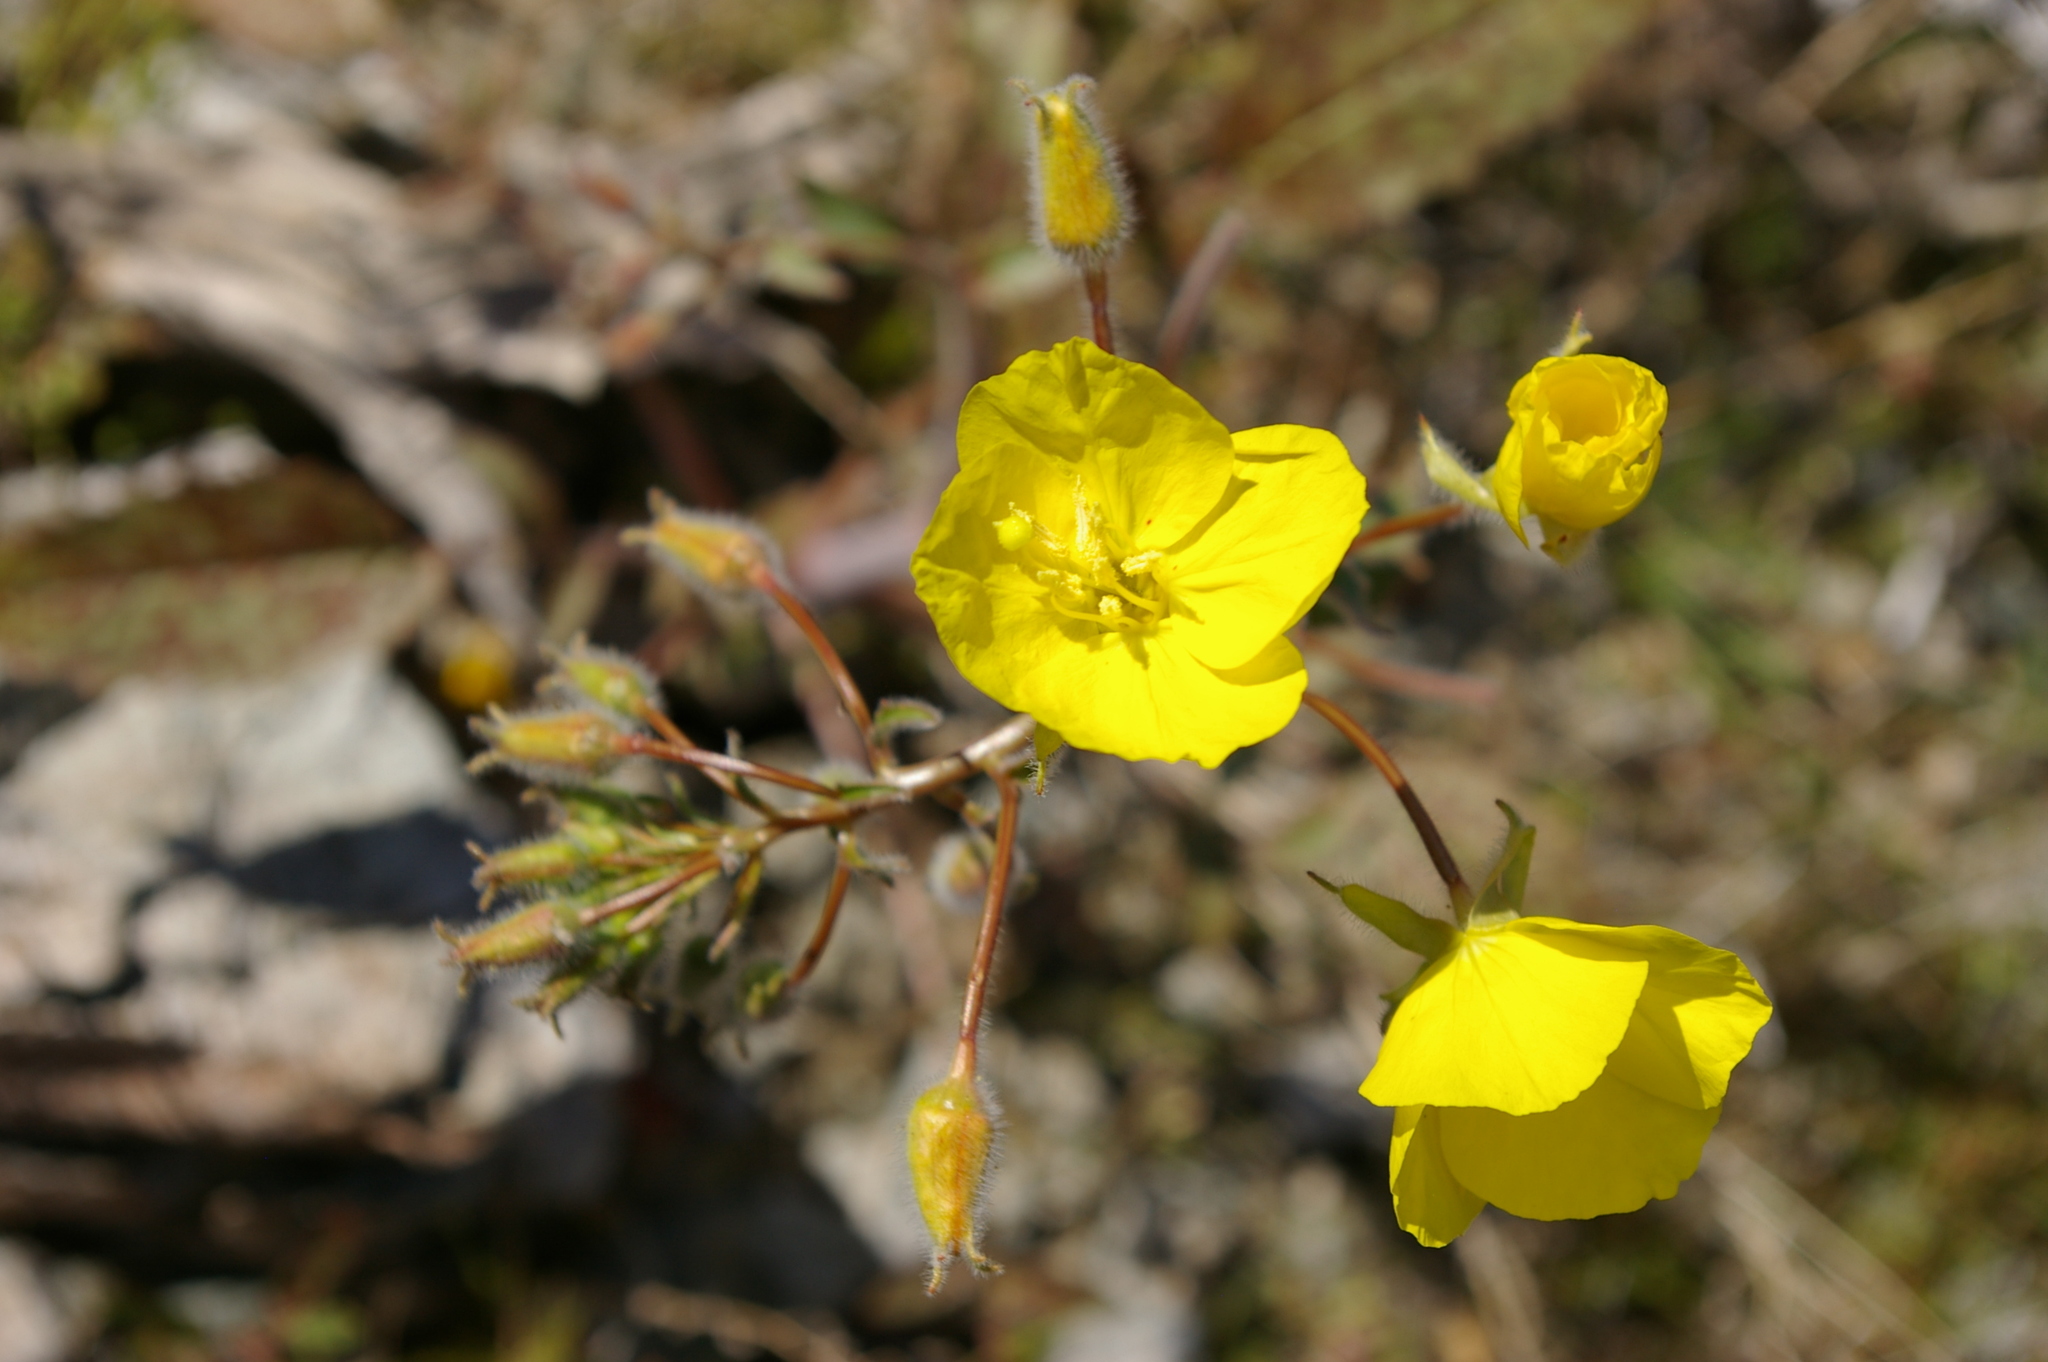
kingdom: Plantae
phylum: Tracheophyta
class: Magnoliopsida
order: Myrtales
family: Onagraceae
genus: Chylismia
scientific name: Chylismia brevipes
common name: Yellow cups
